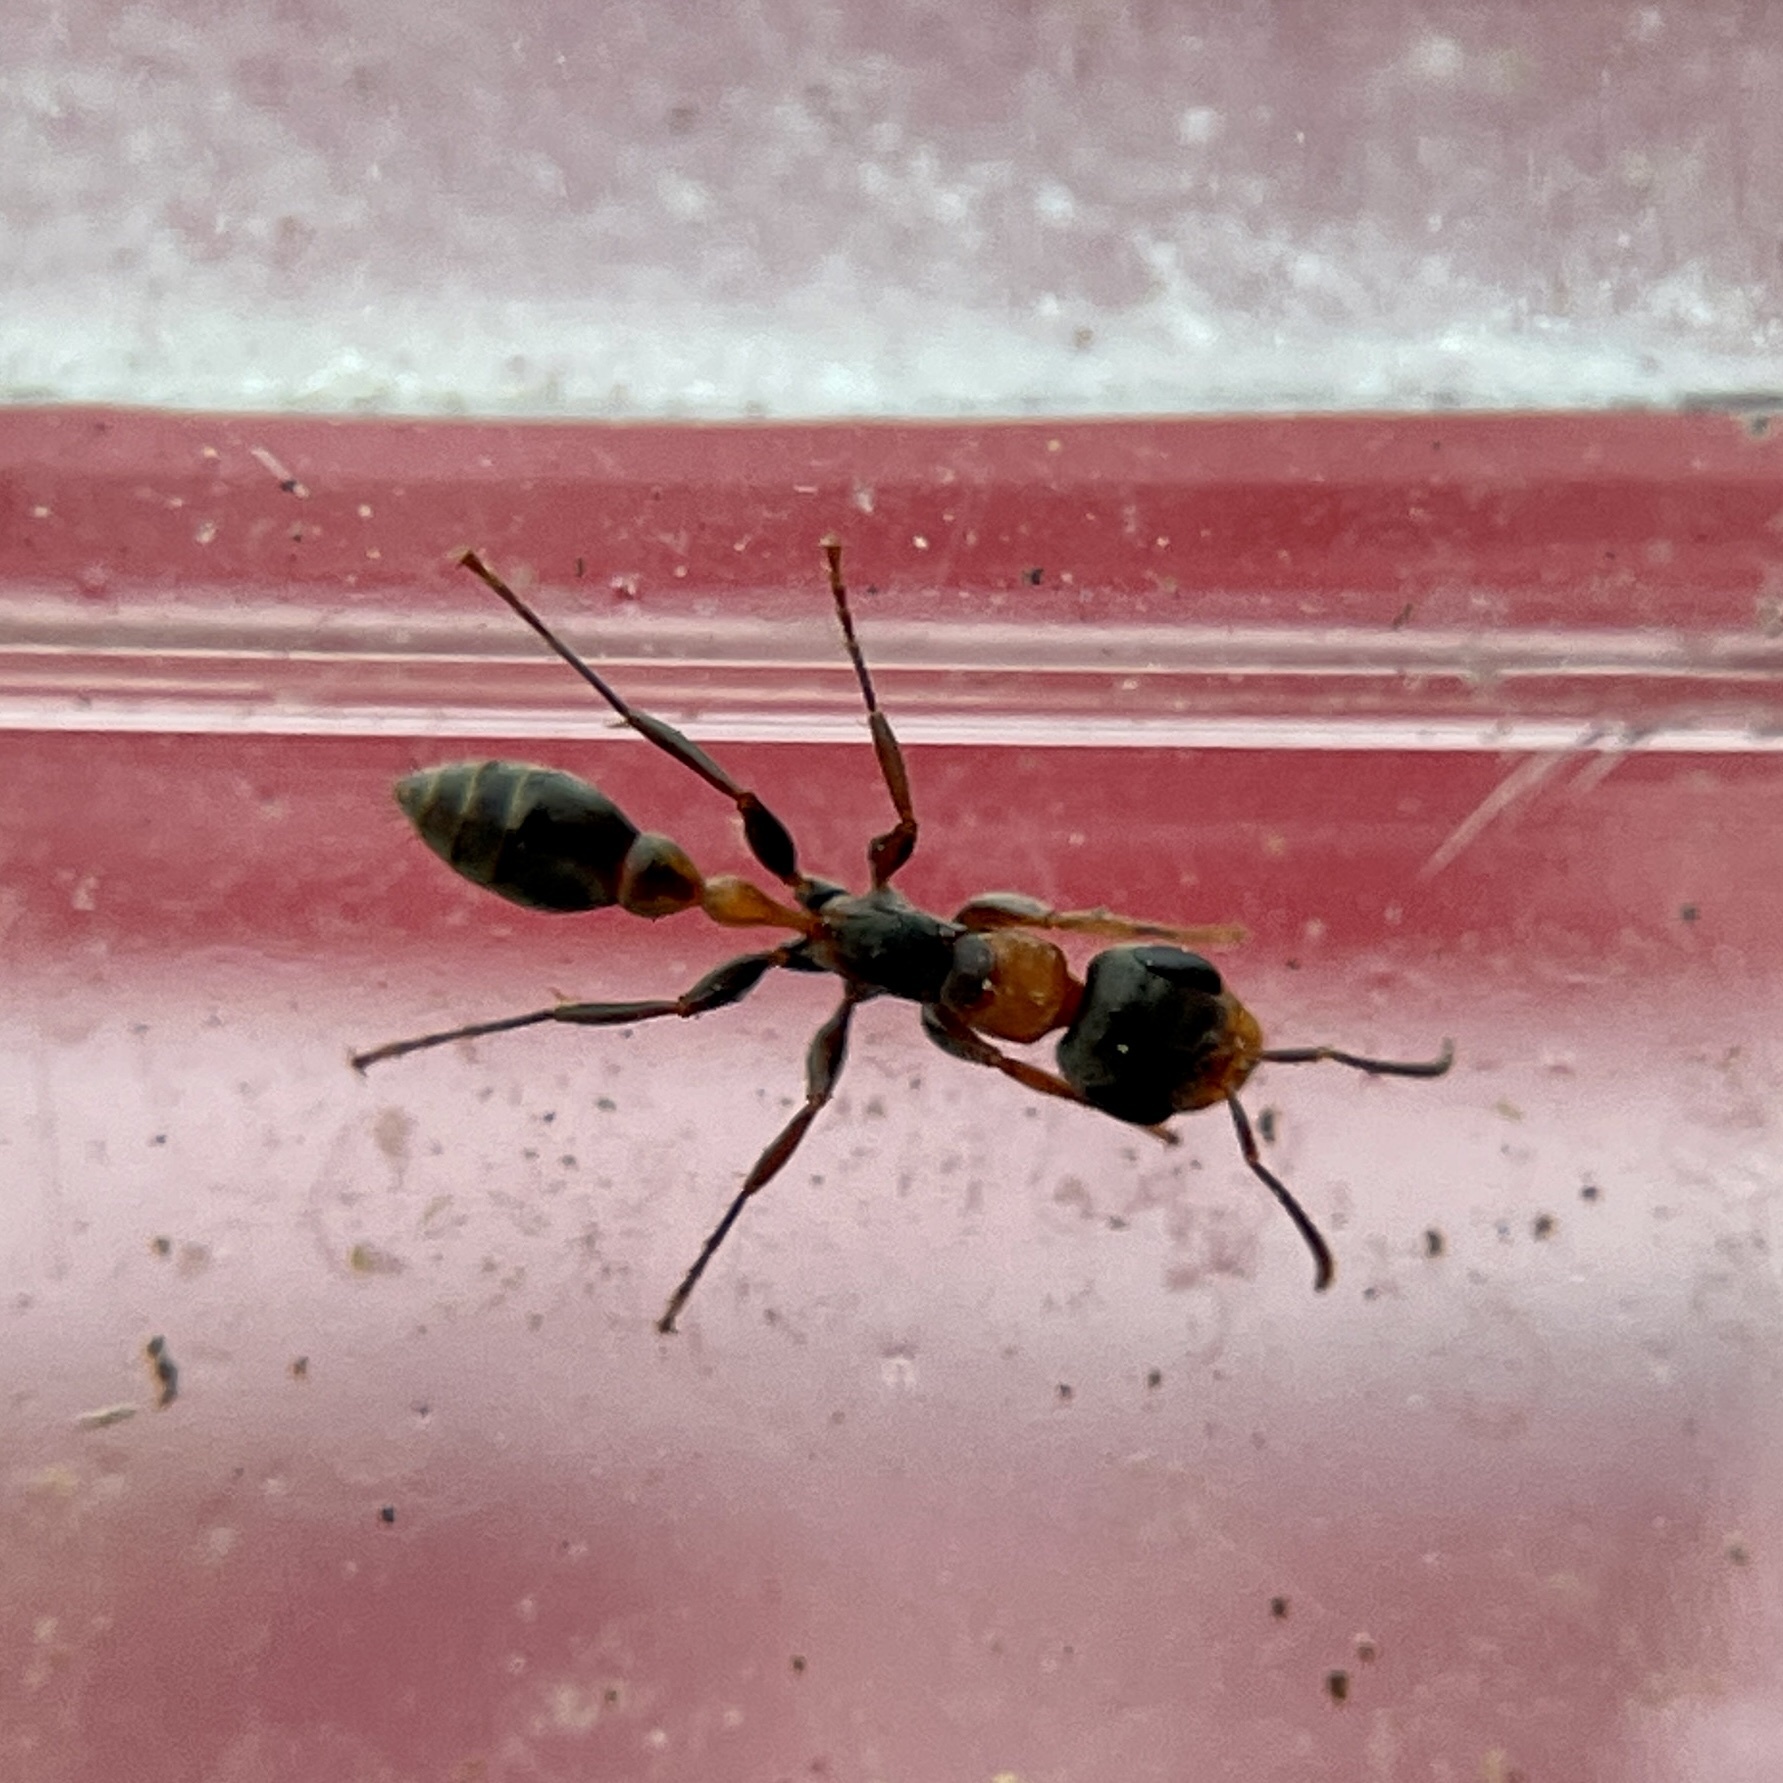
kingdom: Animalia
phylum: Arthropoda
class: Insecta
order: Hymenoptera
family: Formicidae
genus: Pseudomyrmex
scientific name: Pseudomyrmex gracilis
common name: Graceful twig ant
